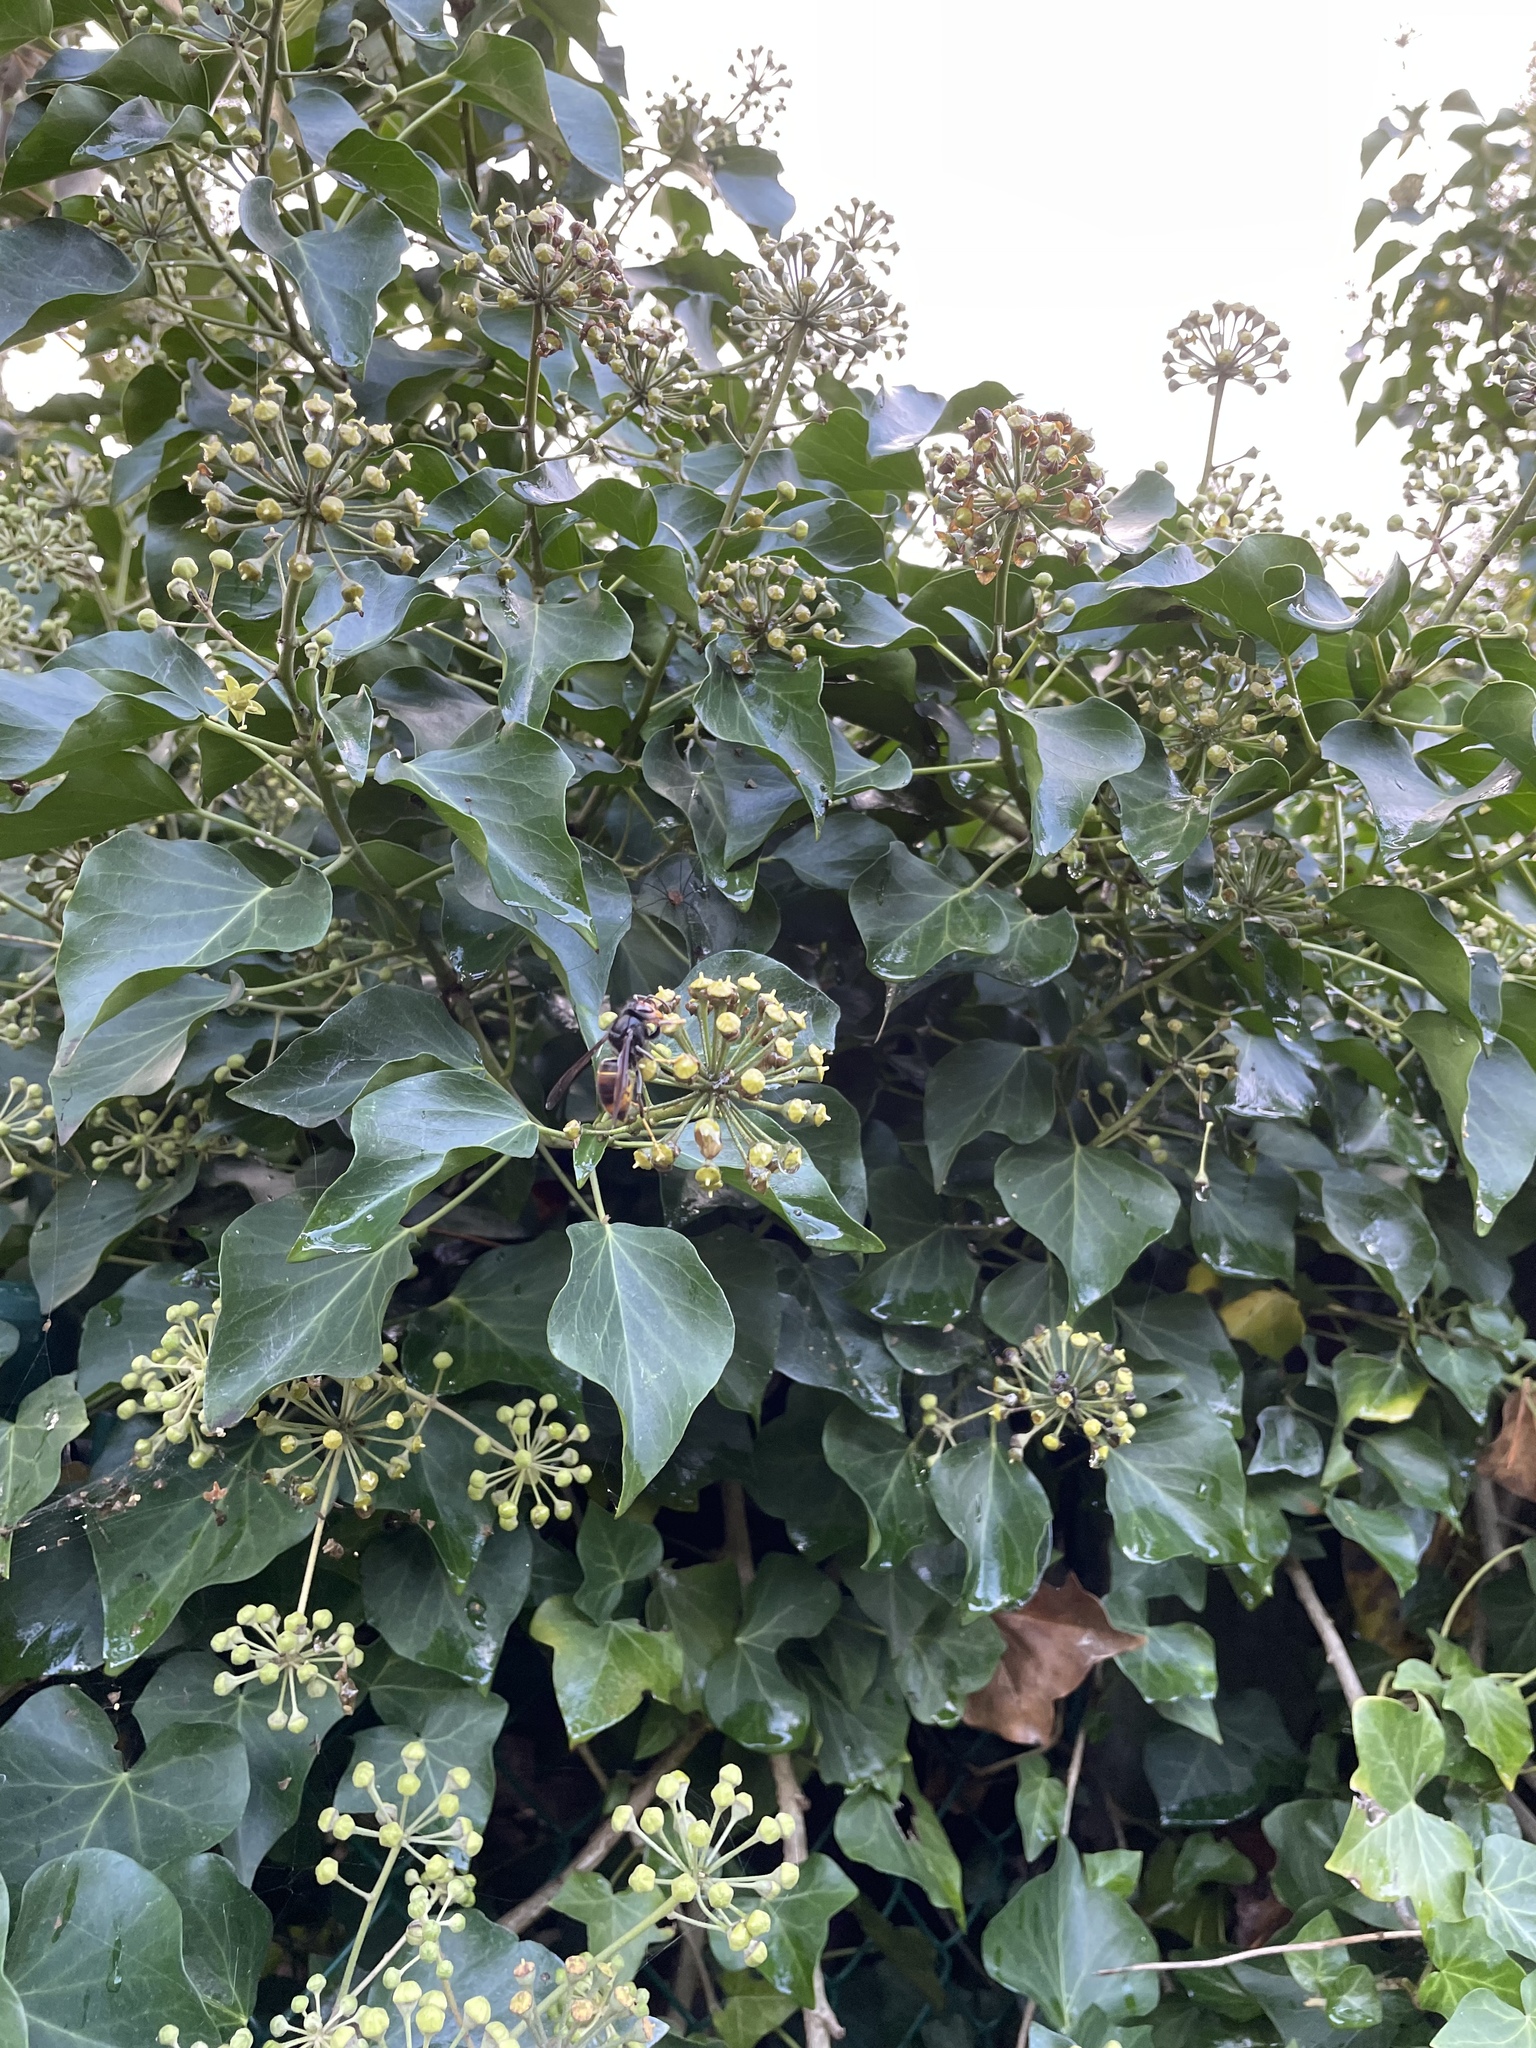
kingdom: Animalia
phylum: Arthropoda
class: Insecta
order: Hymenoptera
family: Vespidae
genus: Vespa
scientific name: Vespa velutina
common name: Asian hornet
